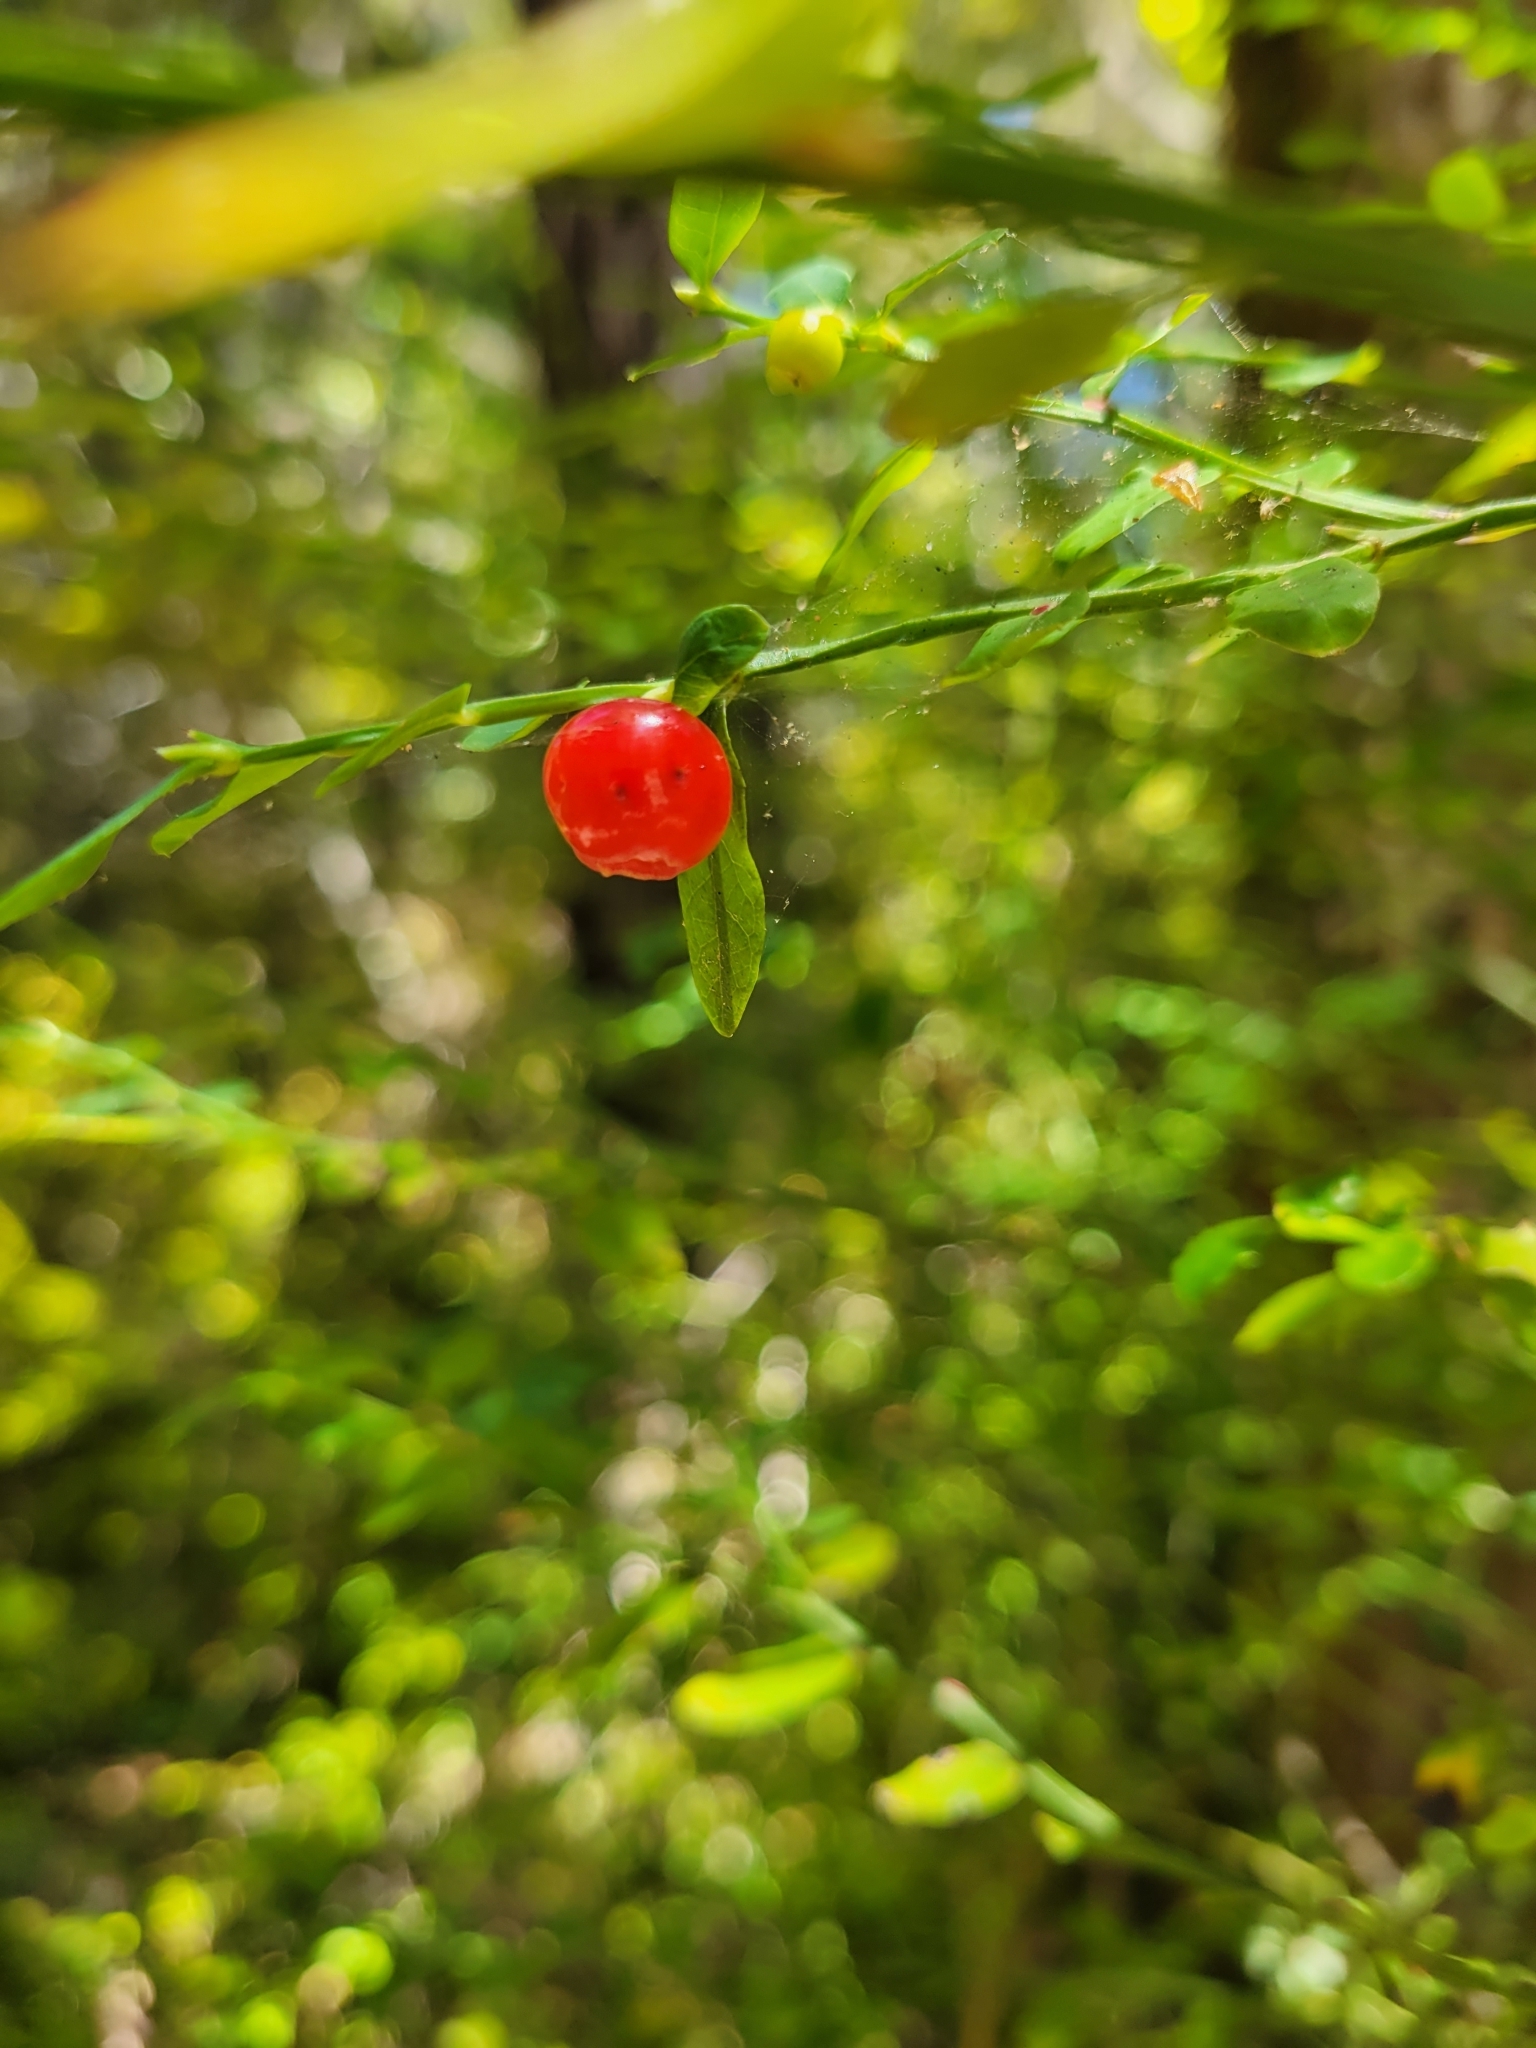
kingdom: Plantae
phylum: Tracheophyta
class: Magnoliopsida
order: Ericales
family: Ericaceae
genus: Vaccinium
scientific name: Vaccinium parvifolium
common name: Red-huckleberry
